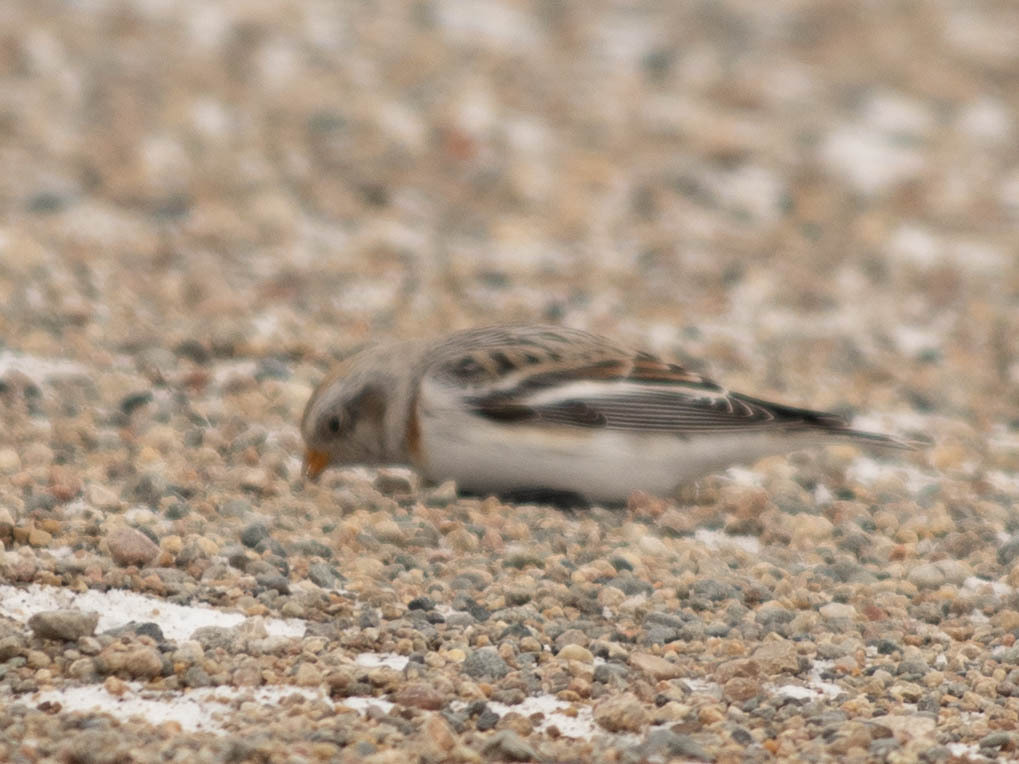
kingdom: Animalia
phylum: Chordata
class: Aves
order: Passeriformes
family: Calcariidae
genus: Plectrophenax
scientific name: Plectrophenax nivalis
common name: Snow bunting
